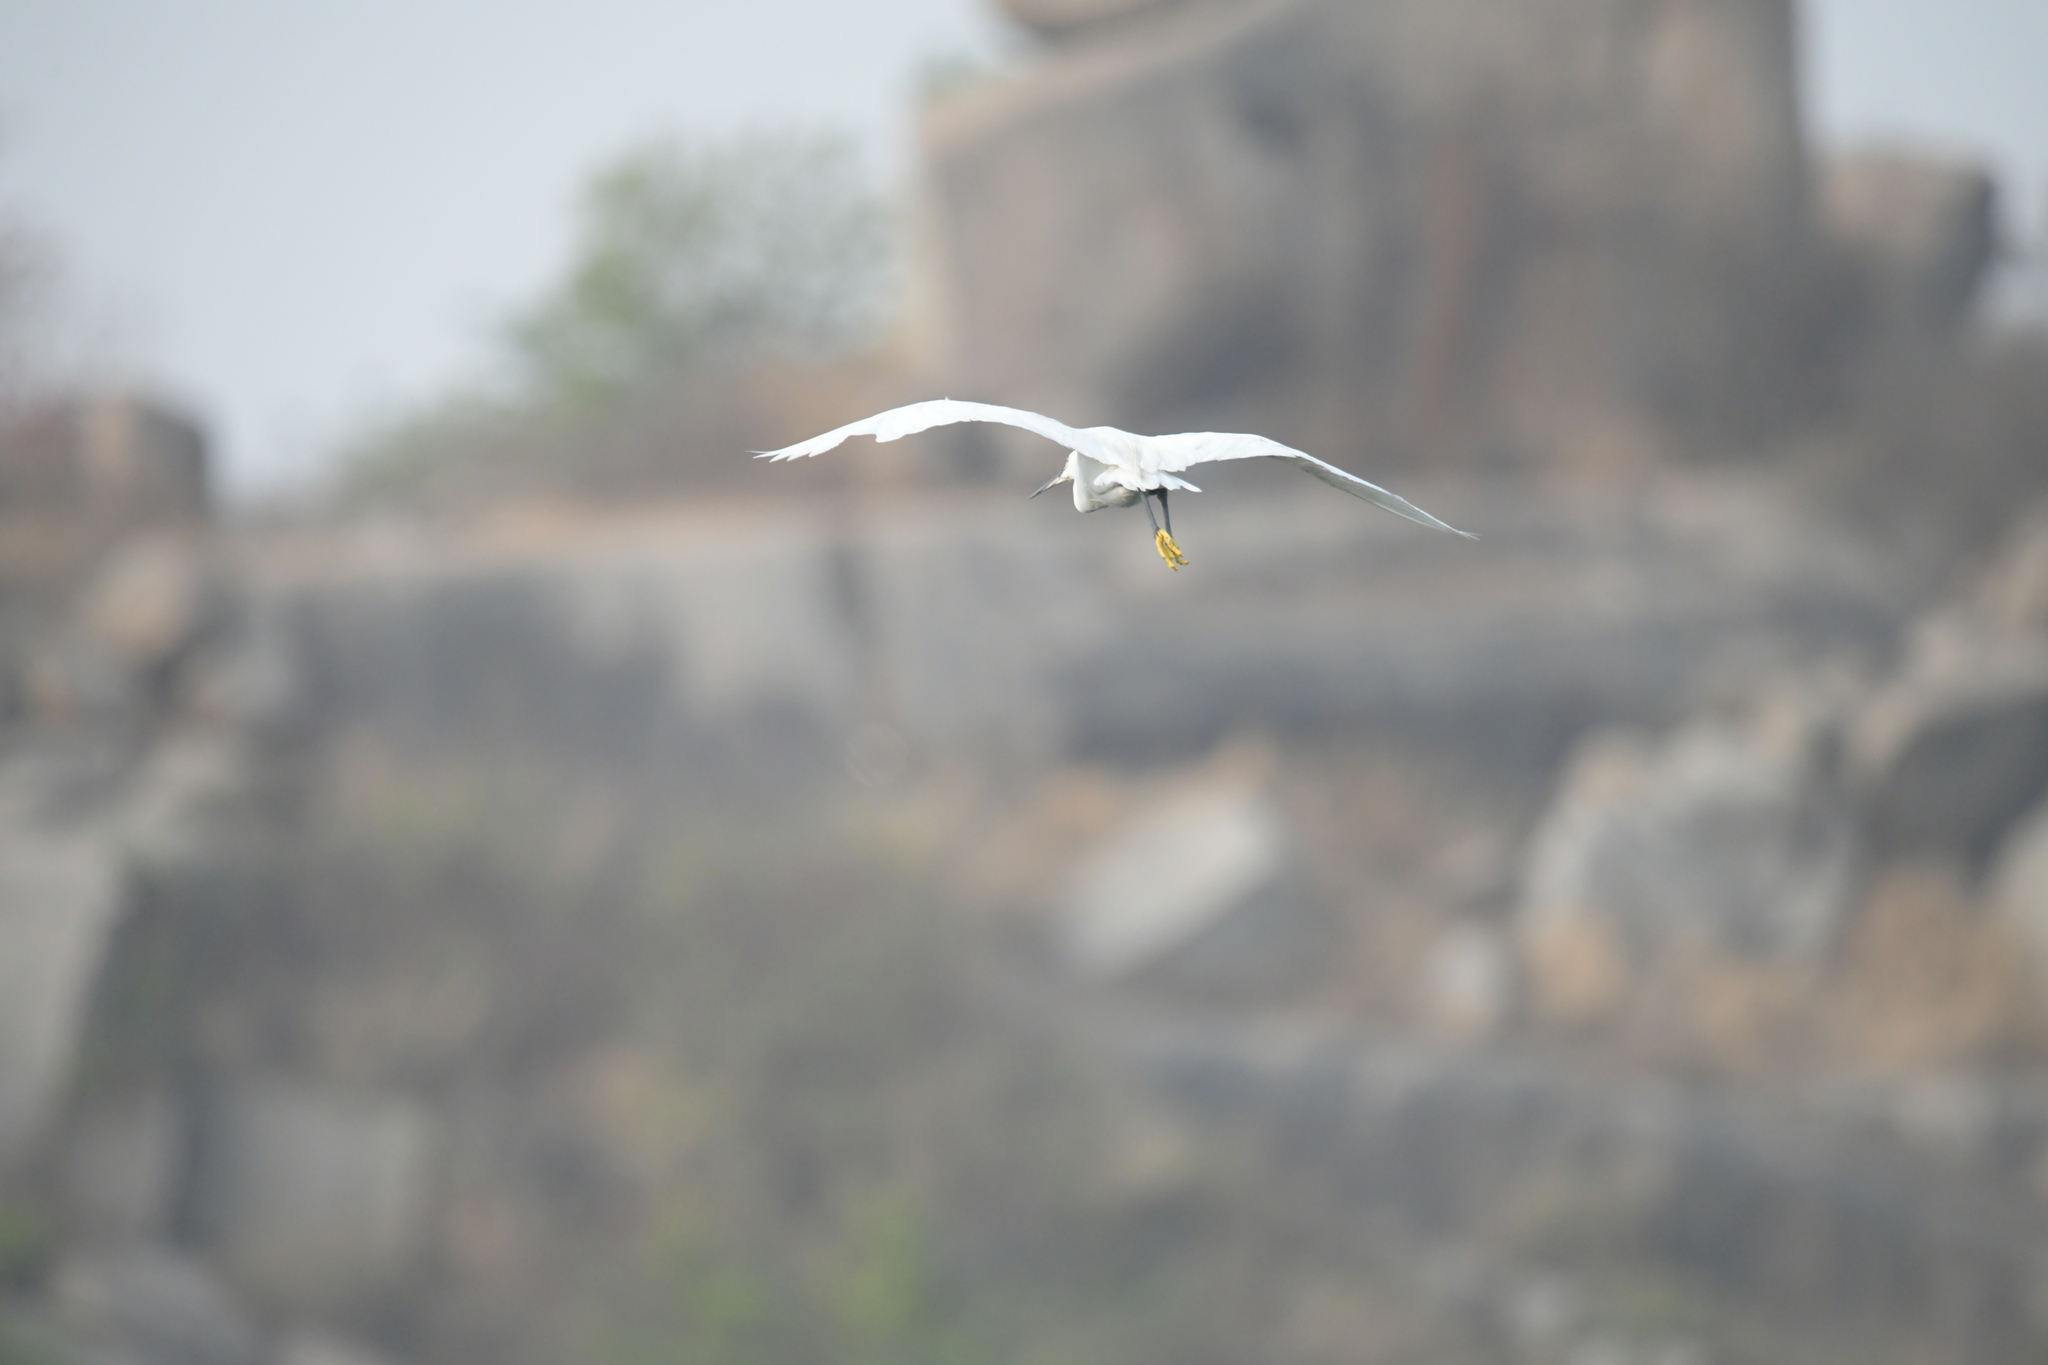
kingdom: Animalia
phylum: Chordata
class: Aves
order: Pelecaniformes
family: Ardeidae
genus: Egretta
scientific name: Egretta garzetta
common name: Little egret
